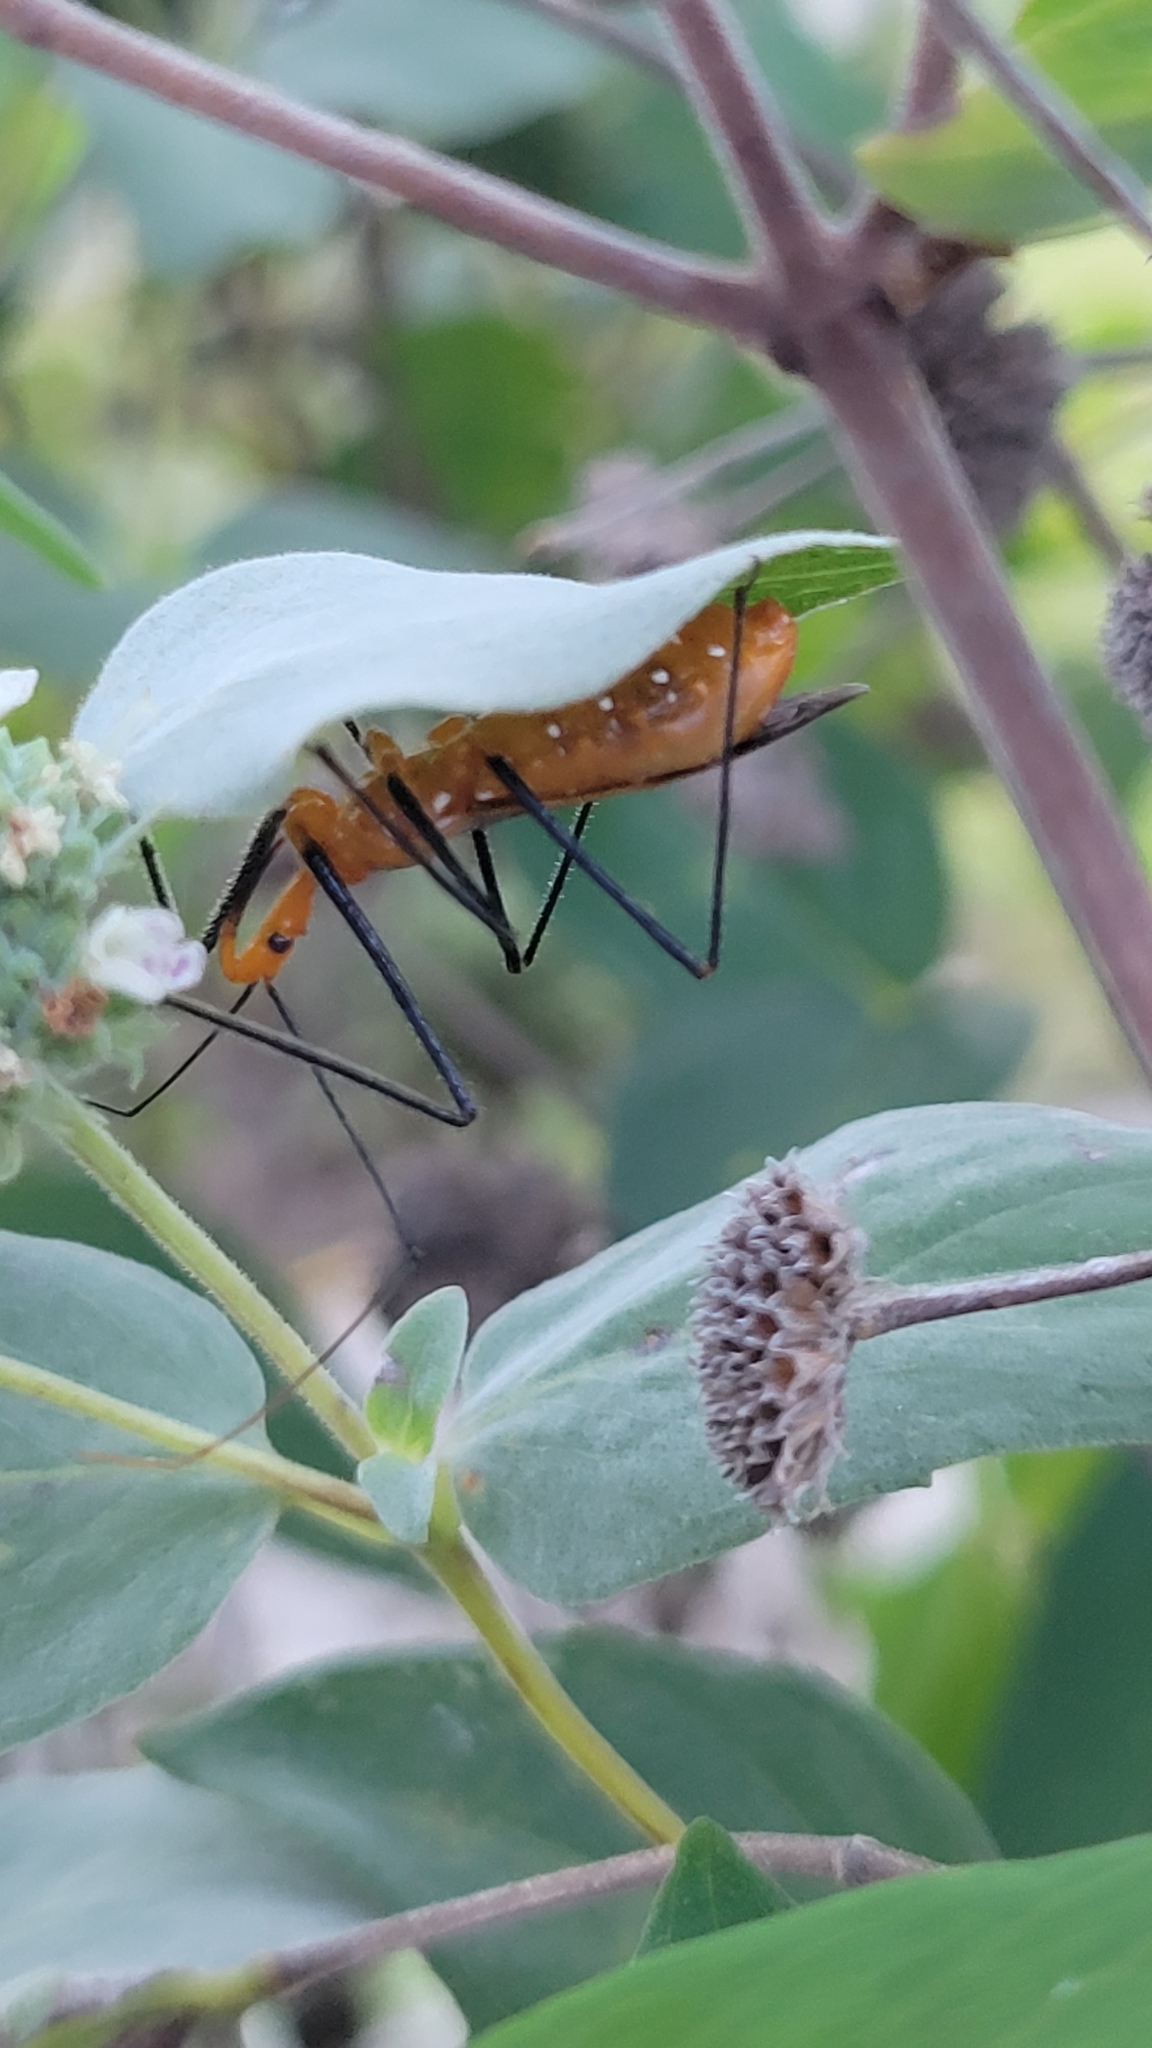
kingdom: Animalia
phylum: Arthropoda
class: Insecta
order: Hemiptera
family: Reduviidae
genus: Zelus
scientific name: Zelus longipes
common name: Milkweed assassin bug
